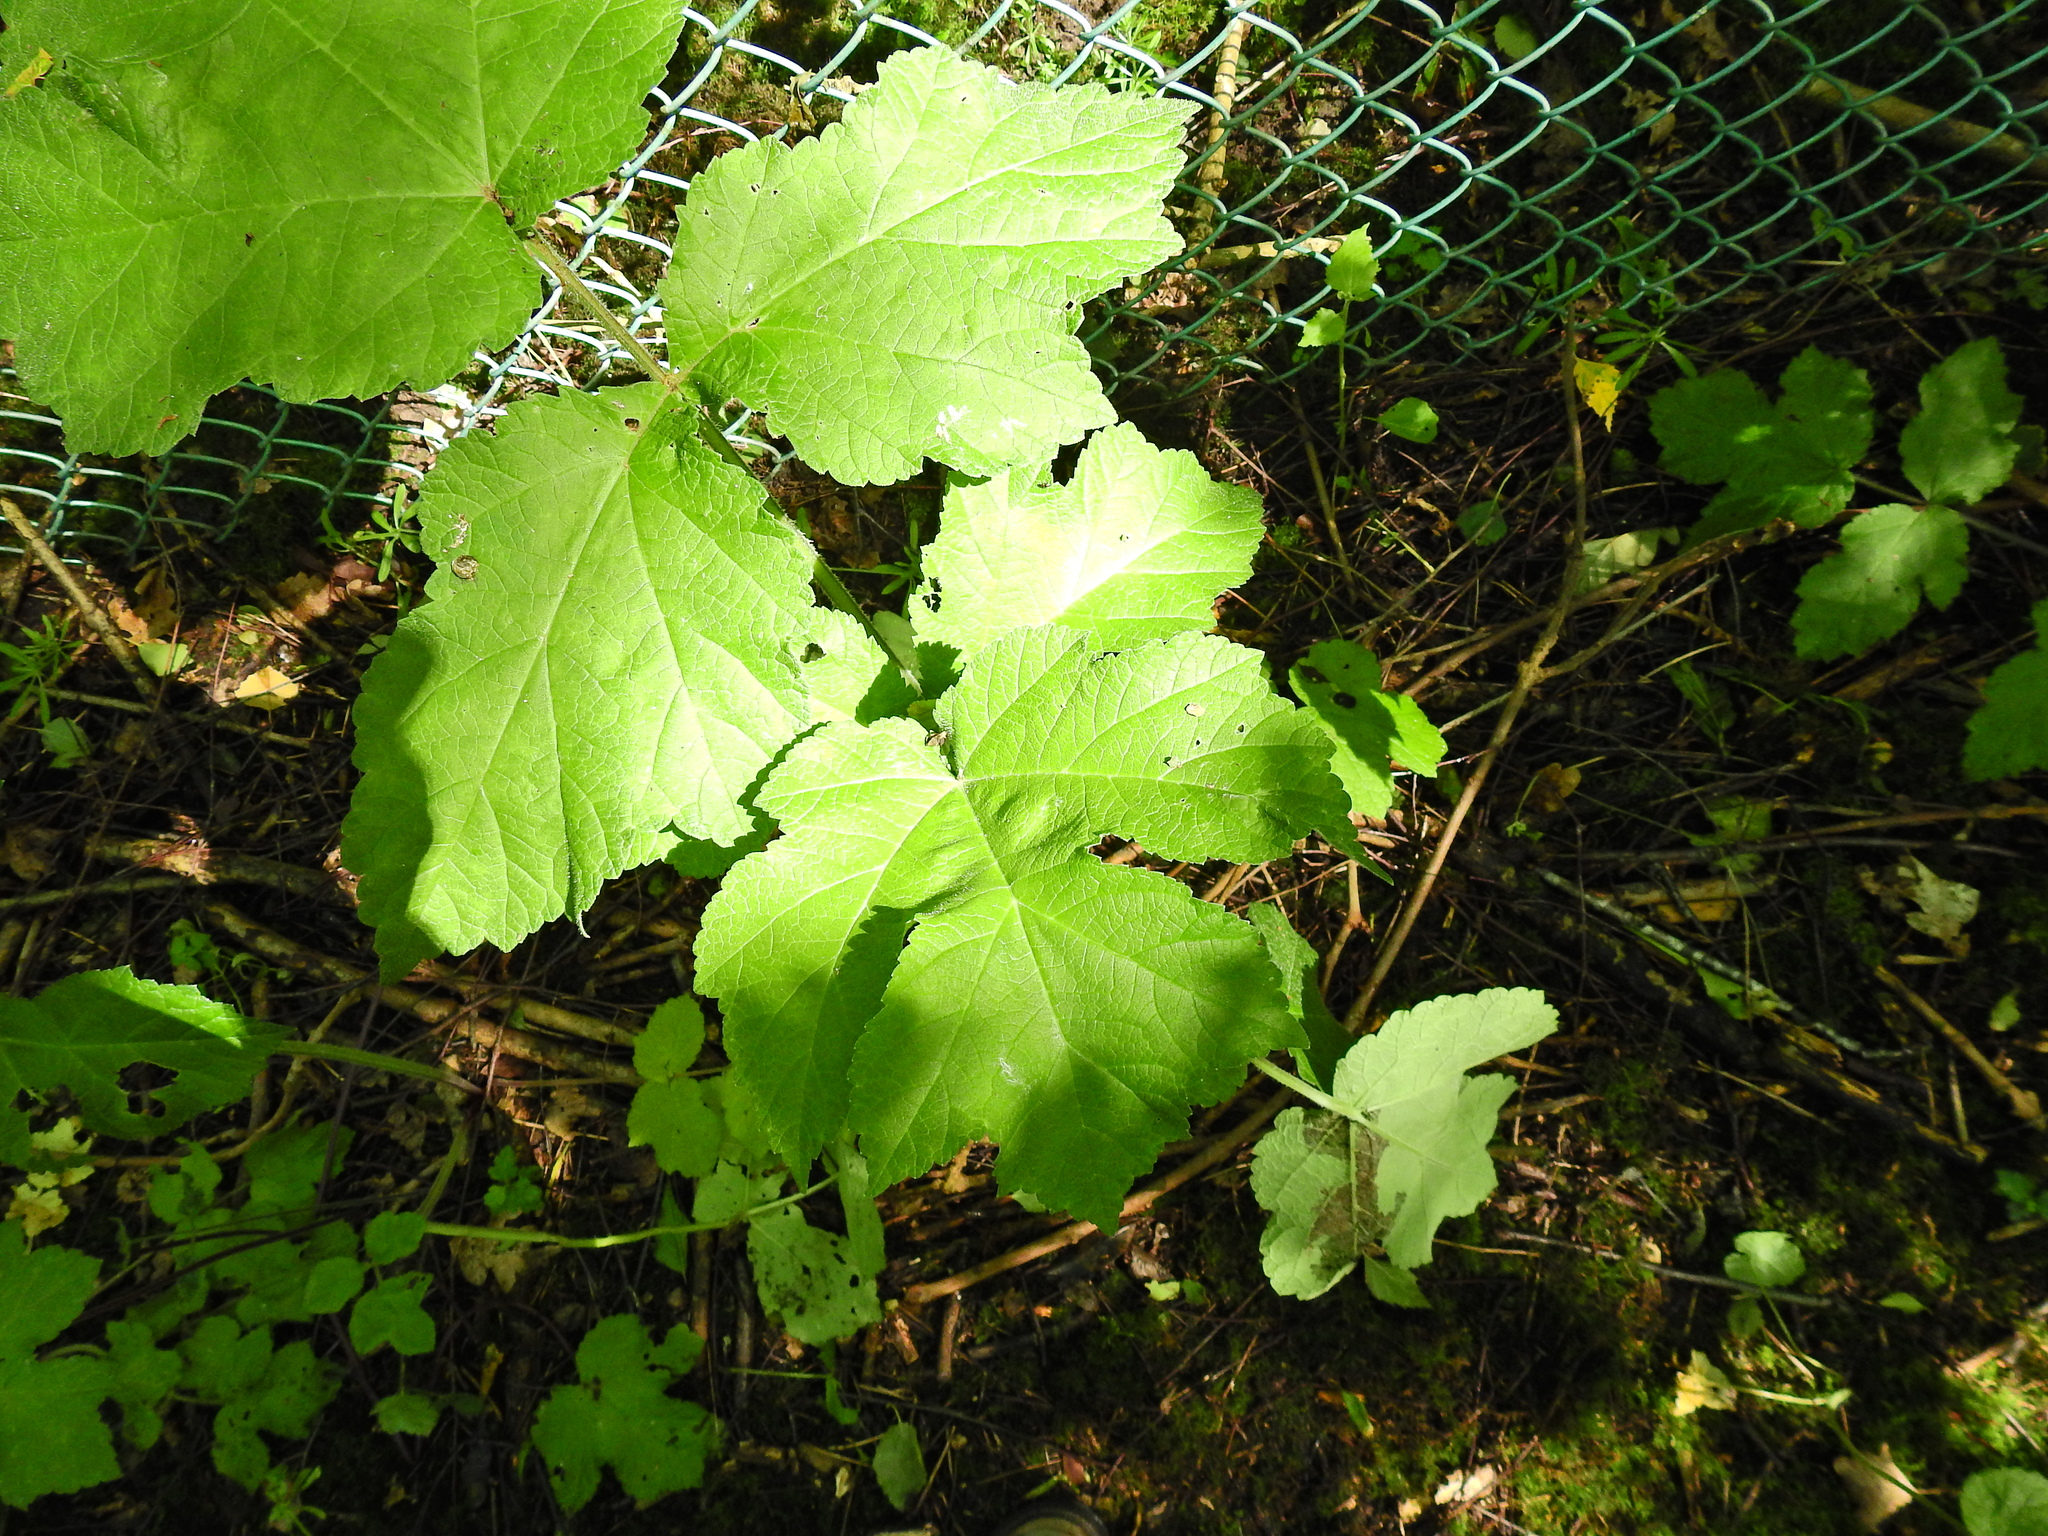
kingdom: Plantae
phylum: Tracheophyta
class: Magnoliopsida
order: Apiales
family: Apiaceae
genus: Heracleum
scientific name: Heracleum sphondylium
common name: Hogweed
